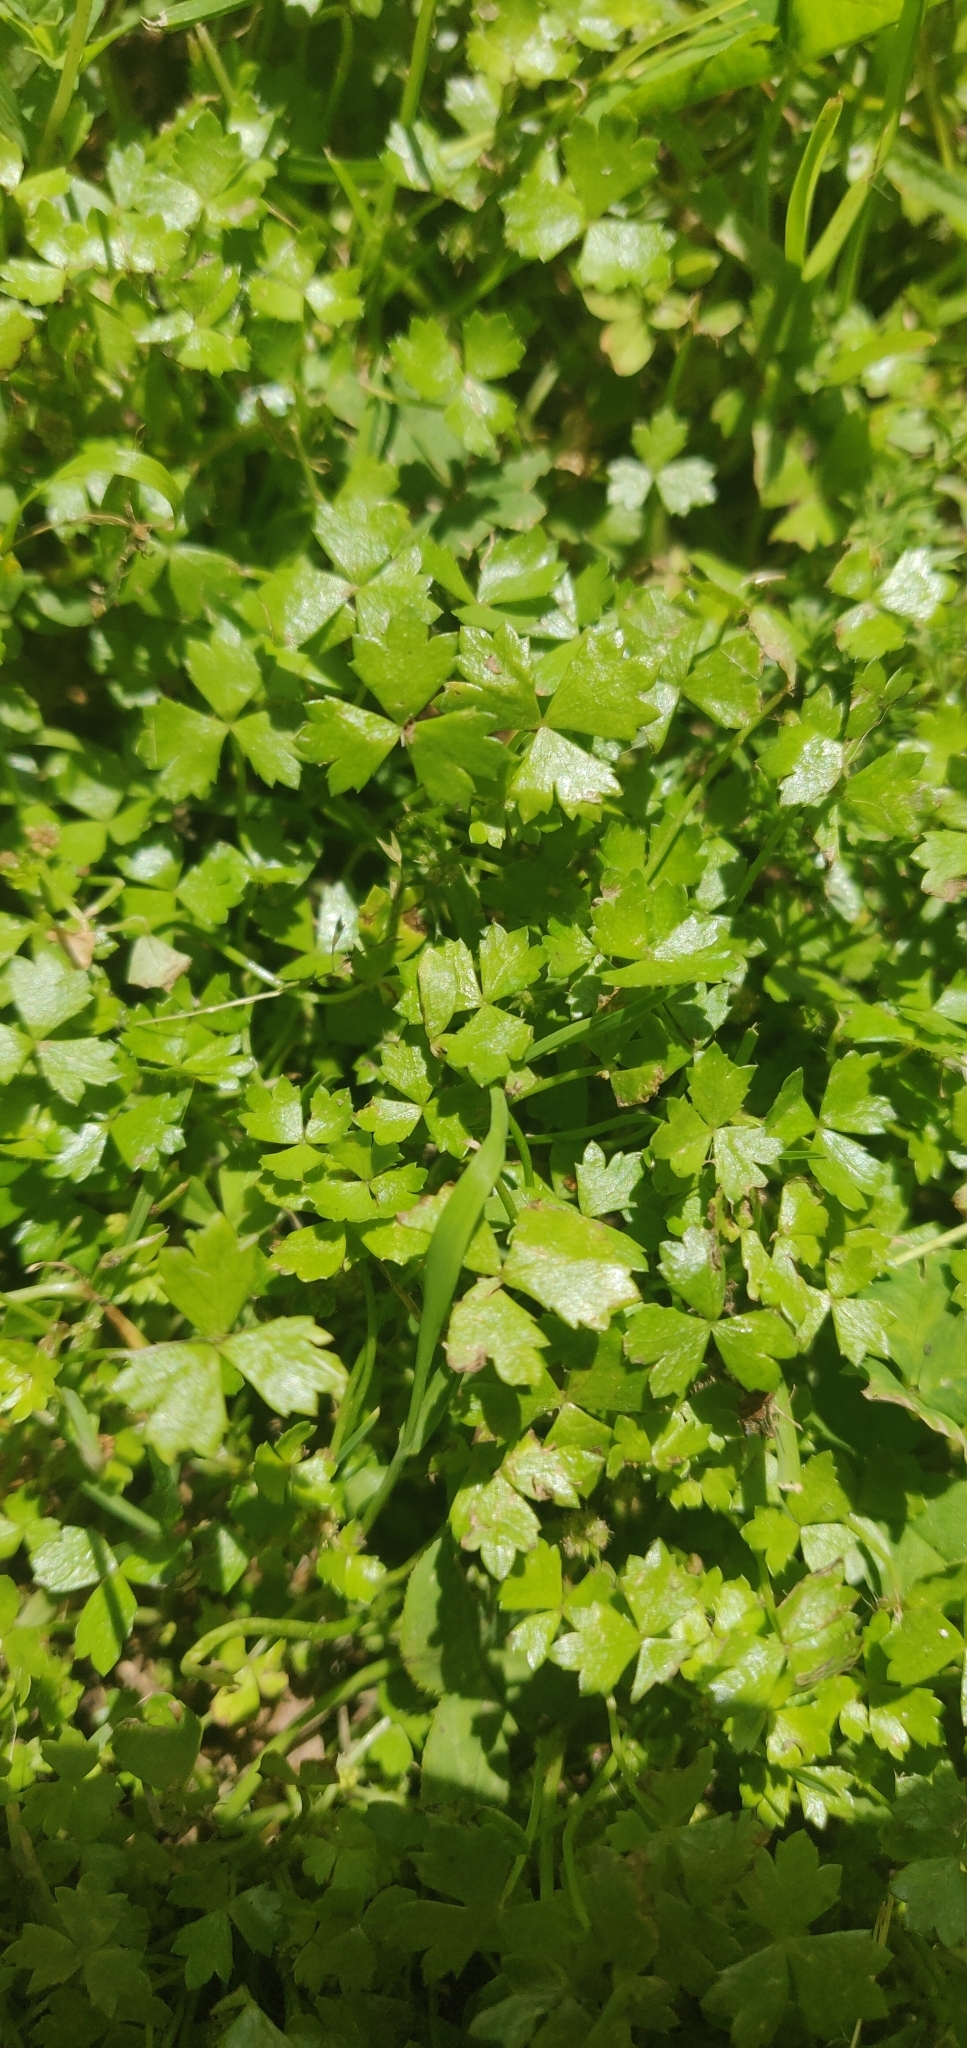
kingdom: Plantae
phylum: Tracheophyta
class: Magnoliopsida
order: Apiales
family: Araliaceae
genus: Hydrocotyle
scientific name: Hydrocotyle tripartita
